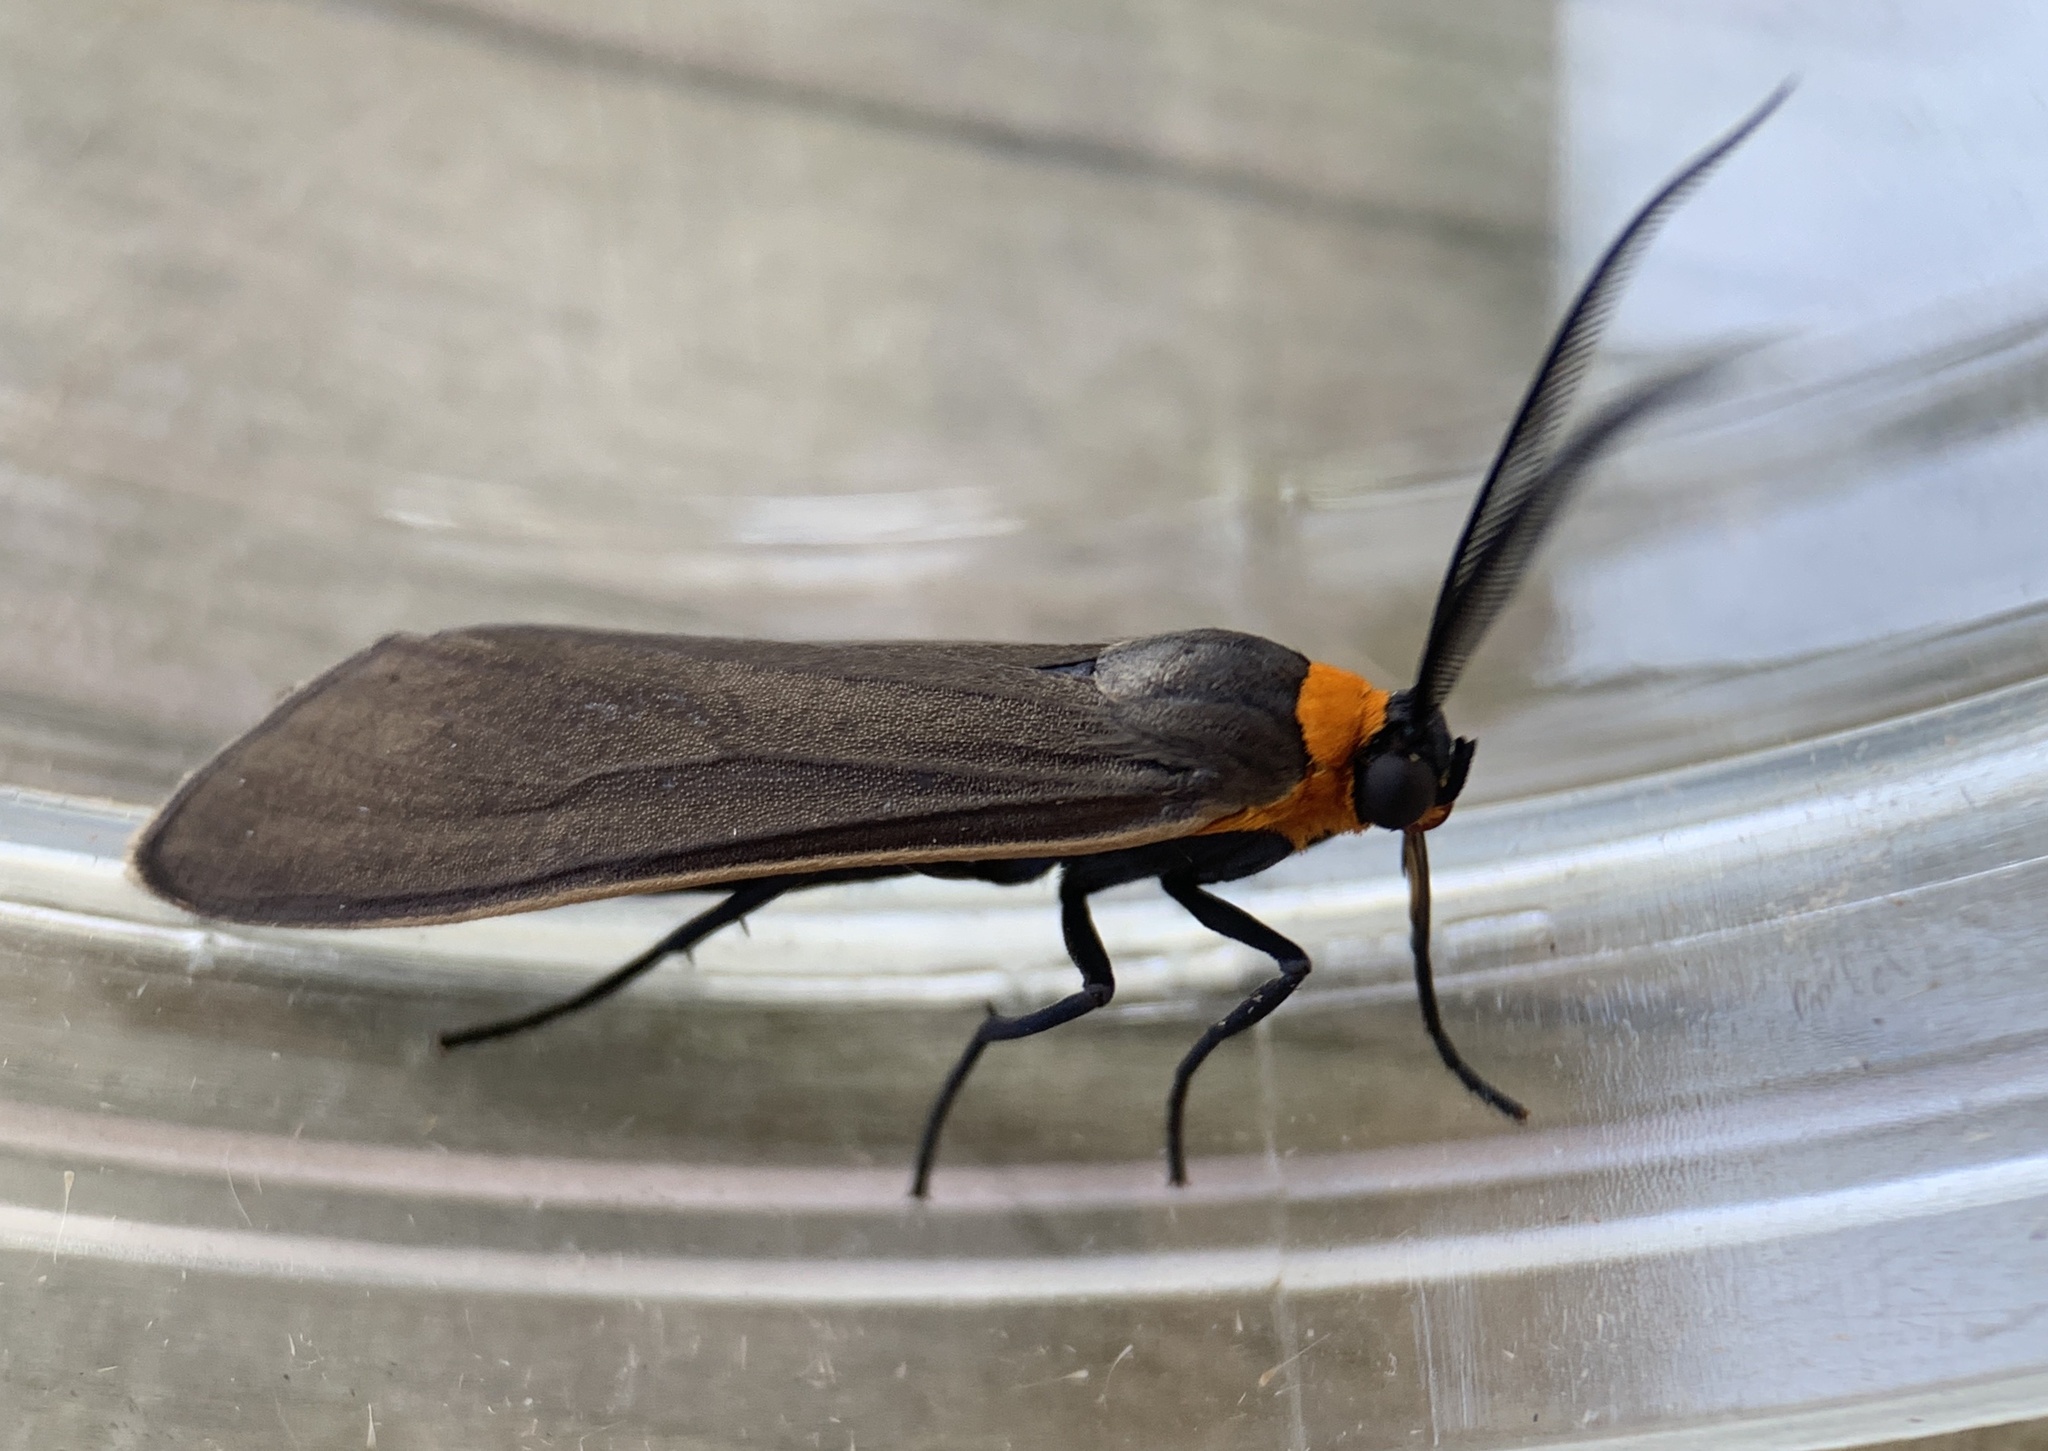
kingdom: Animalia
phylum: Arthropoda
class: Insecta
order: Lepidoptera
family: Erebidae
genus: Cisseps
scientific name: Cisseps fulvicollis
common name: Yellow-collared scape moth
